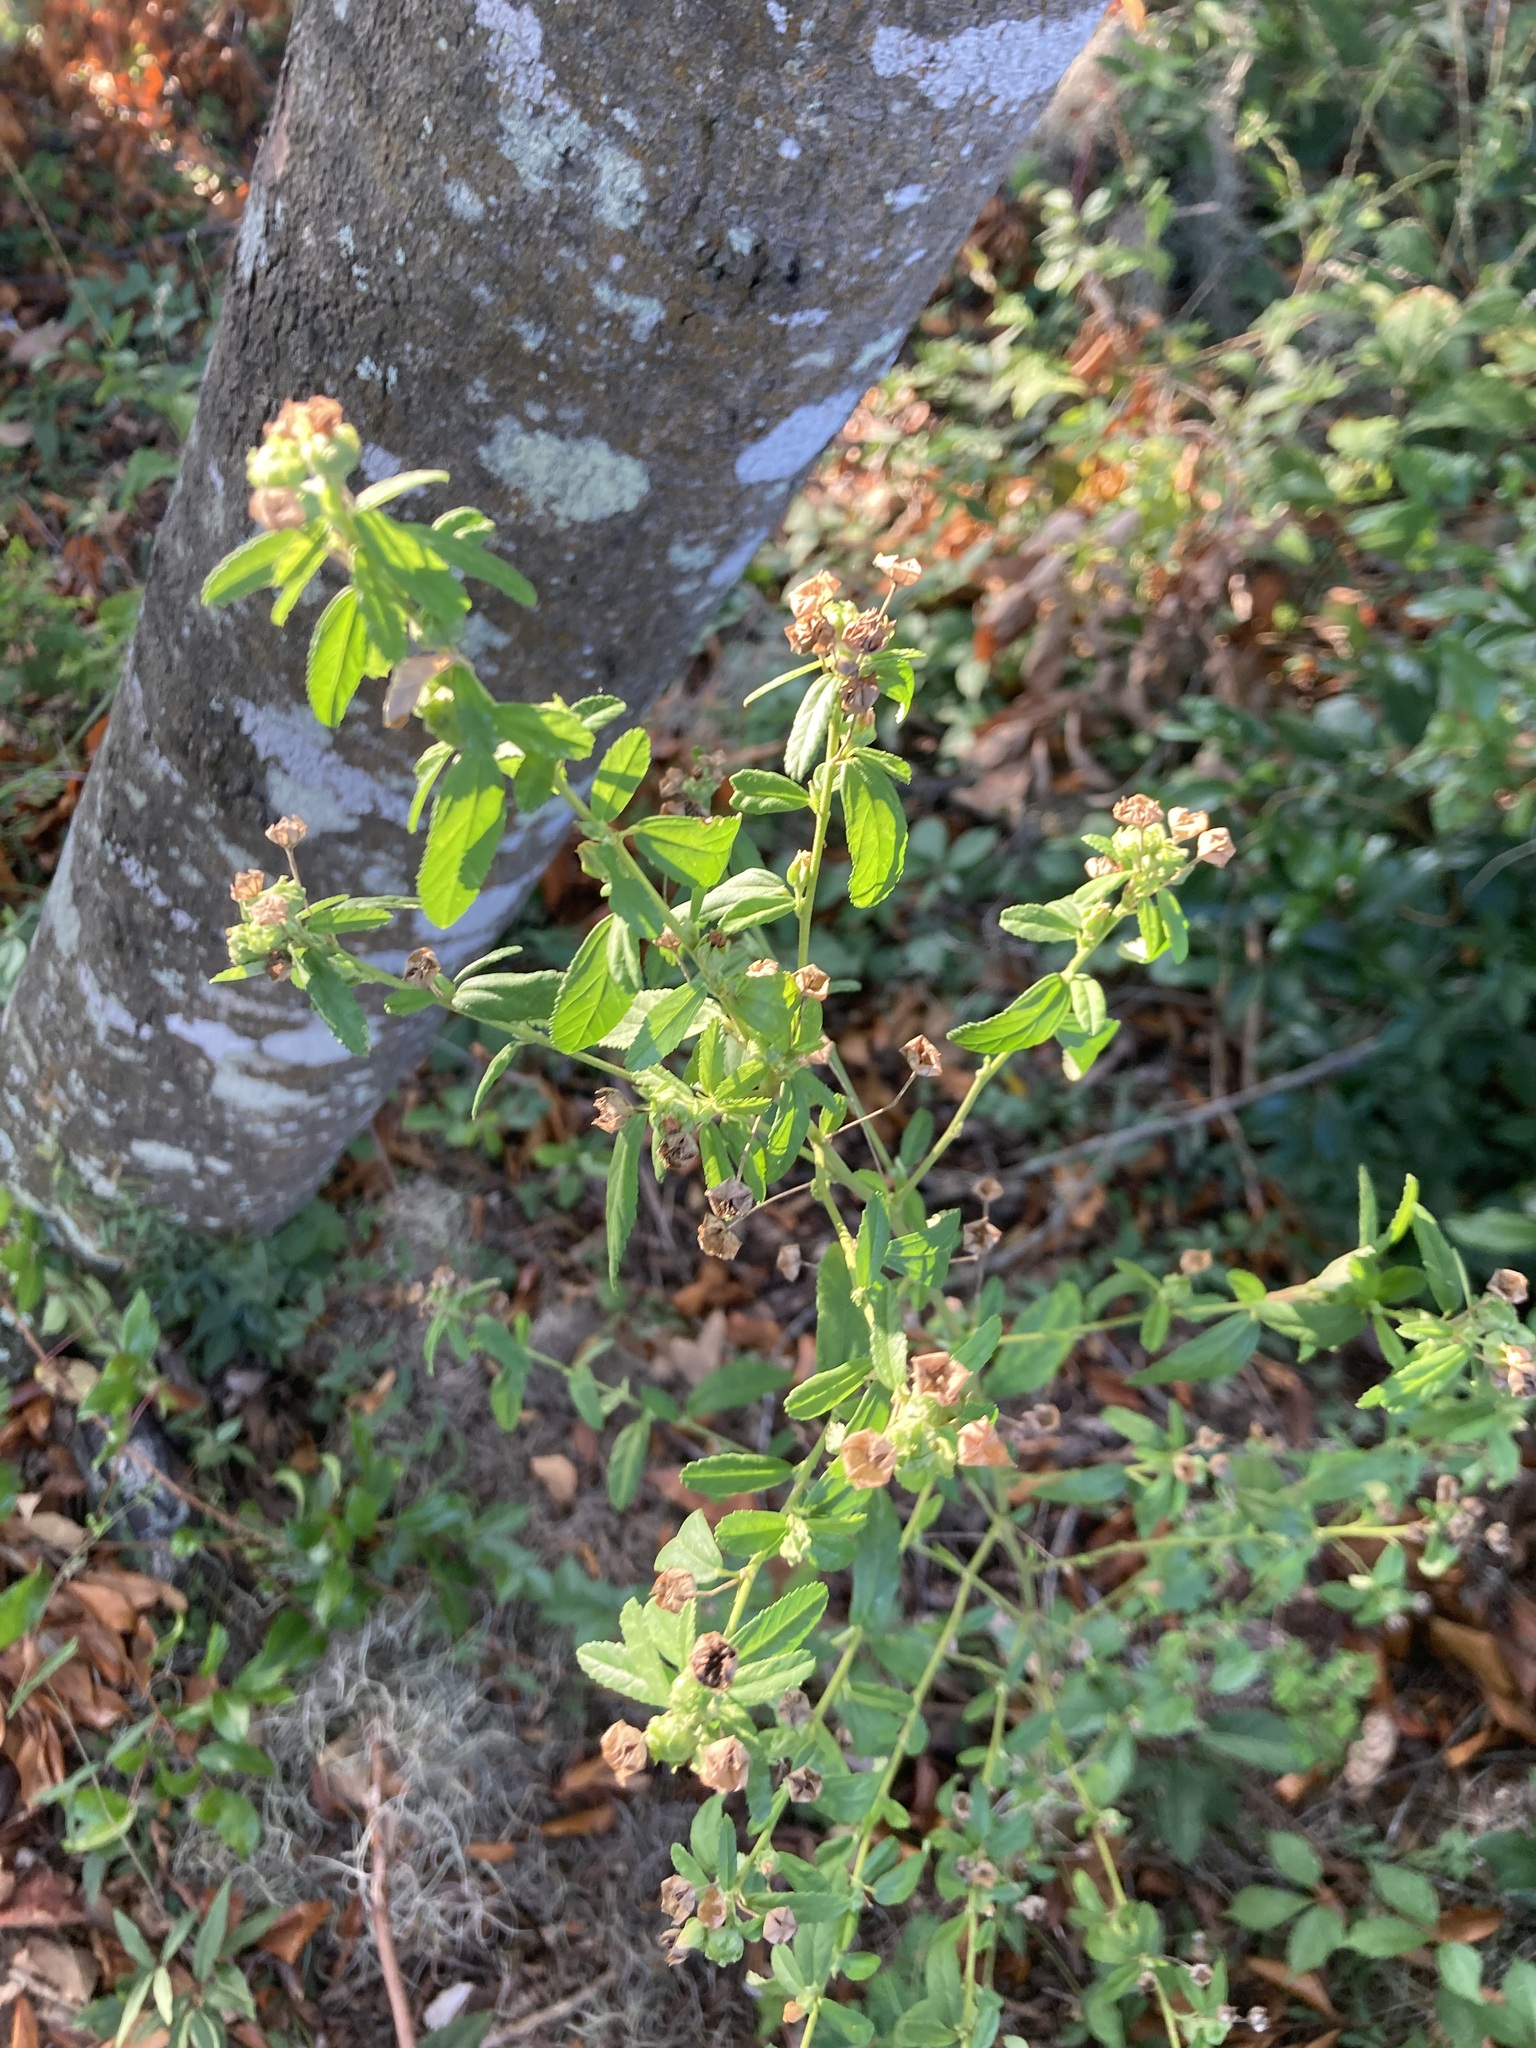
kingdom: Plantae
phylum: Tracheophyta
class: Magnoliopsida
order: Malvales
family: Malvaceae
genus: Sida
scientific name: Sida rhombifolia
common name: Queensland-hemp
